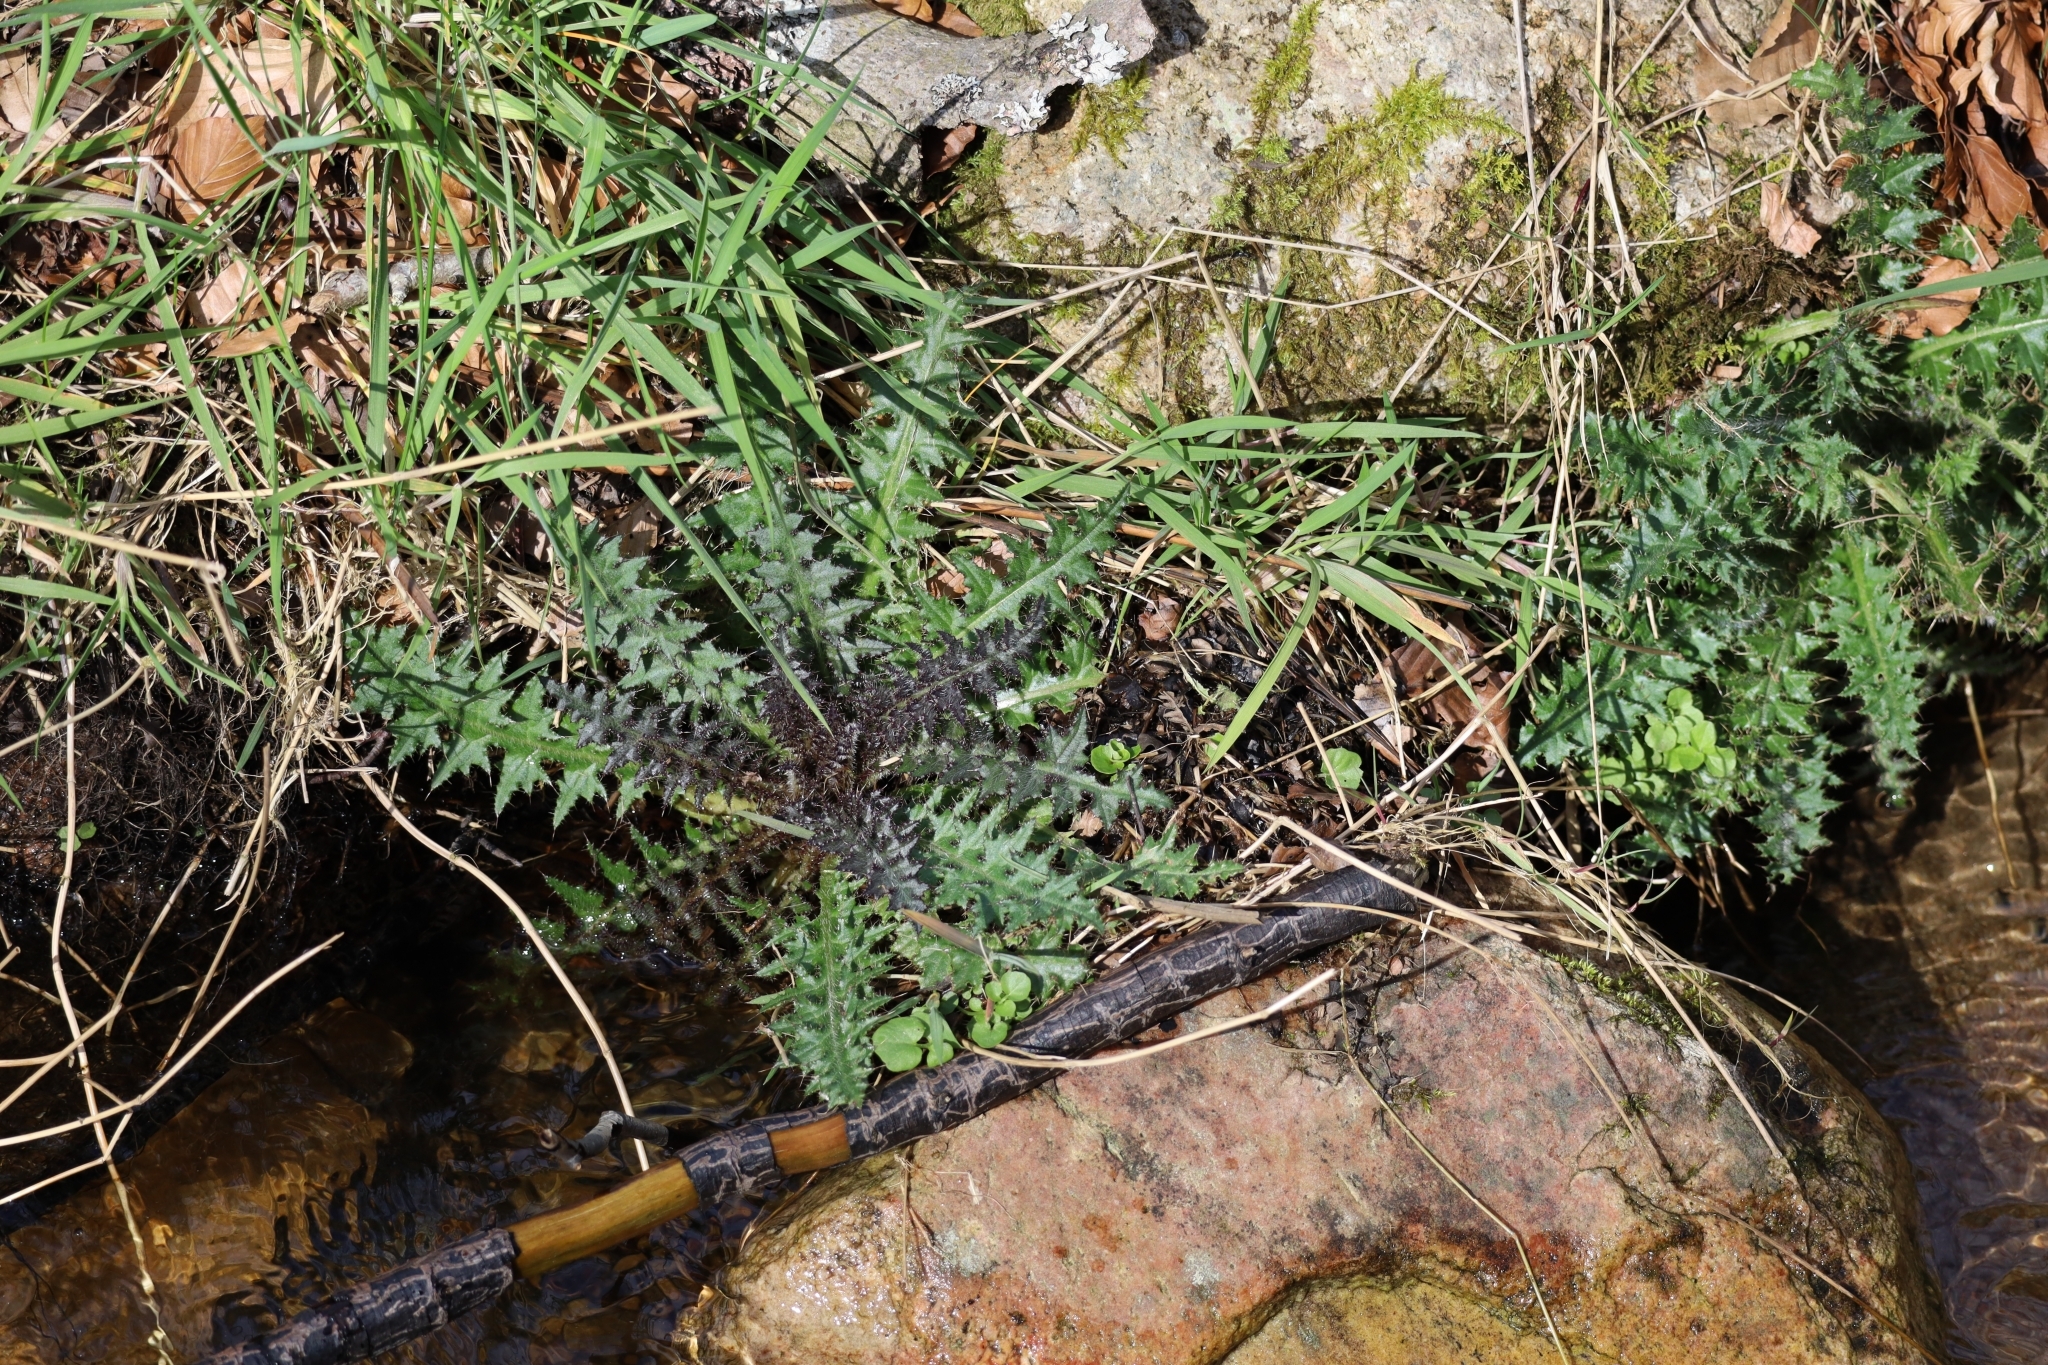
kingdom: Plantae
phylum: Tracheophyta
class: Magnoliopsida
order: Asterales
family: Asteraceae
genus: Cirsium
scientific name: Cirsium palustre
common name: Marsh thistle
